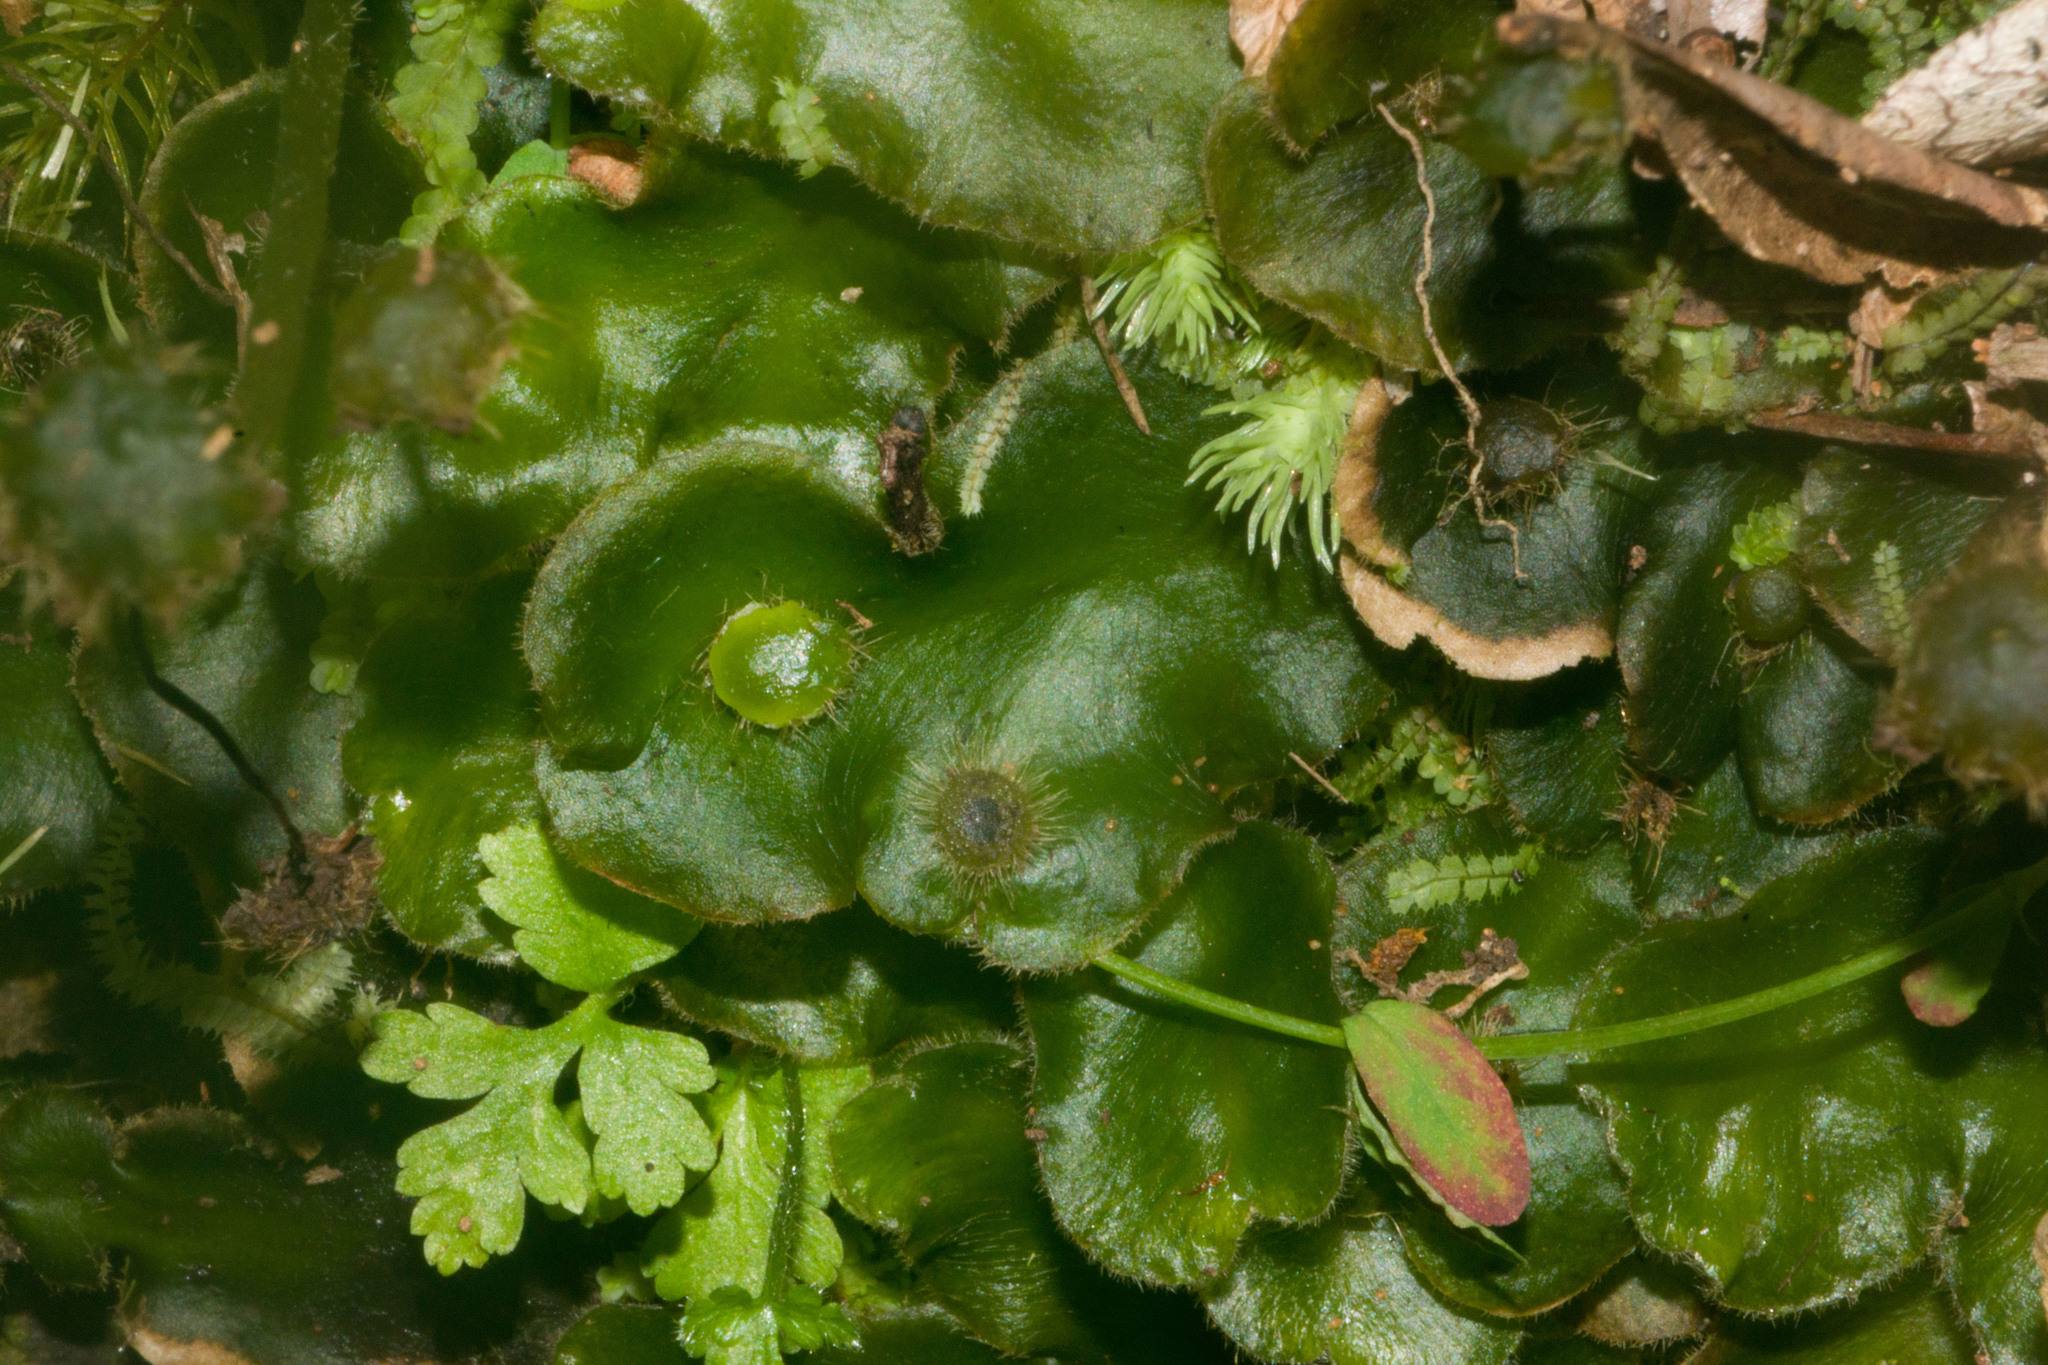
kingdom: Plantae
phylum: Marchantiophyta
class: Marchantiopsida
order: Marchantiales
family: Dumortieraceae
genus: Dumortiera
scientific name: Dumortiera hirsuta
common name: Dumortier's liverwort
